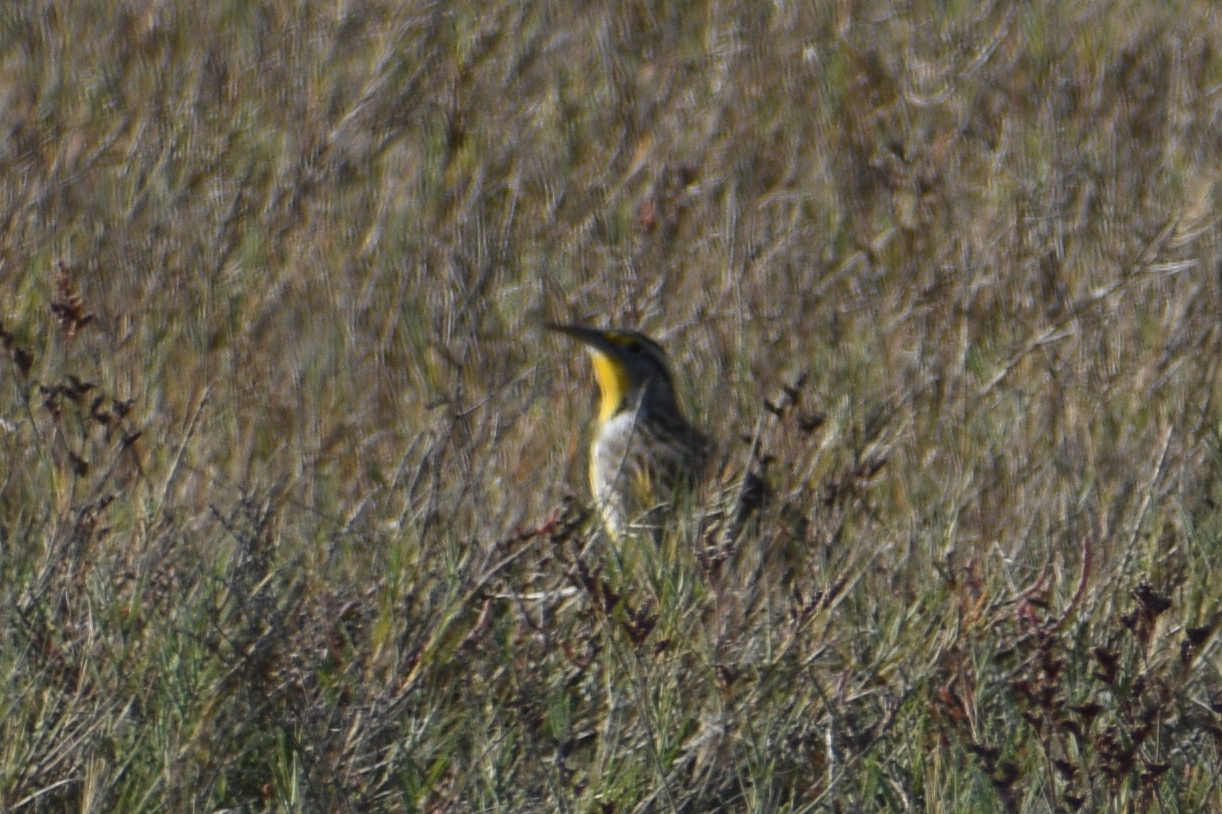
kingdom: Animalia
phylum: Chordata
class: Aves
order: Passeriformes
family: Icteridae
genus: Sturnella
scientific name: Sturnella neglecta
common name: Western meadowlark
